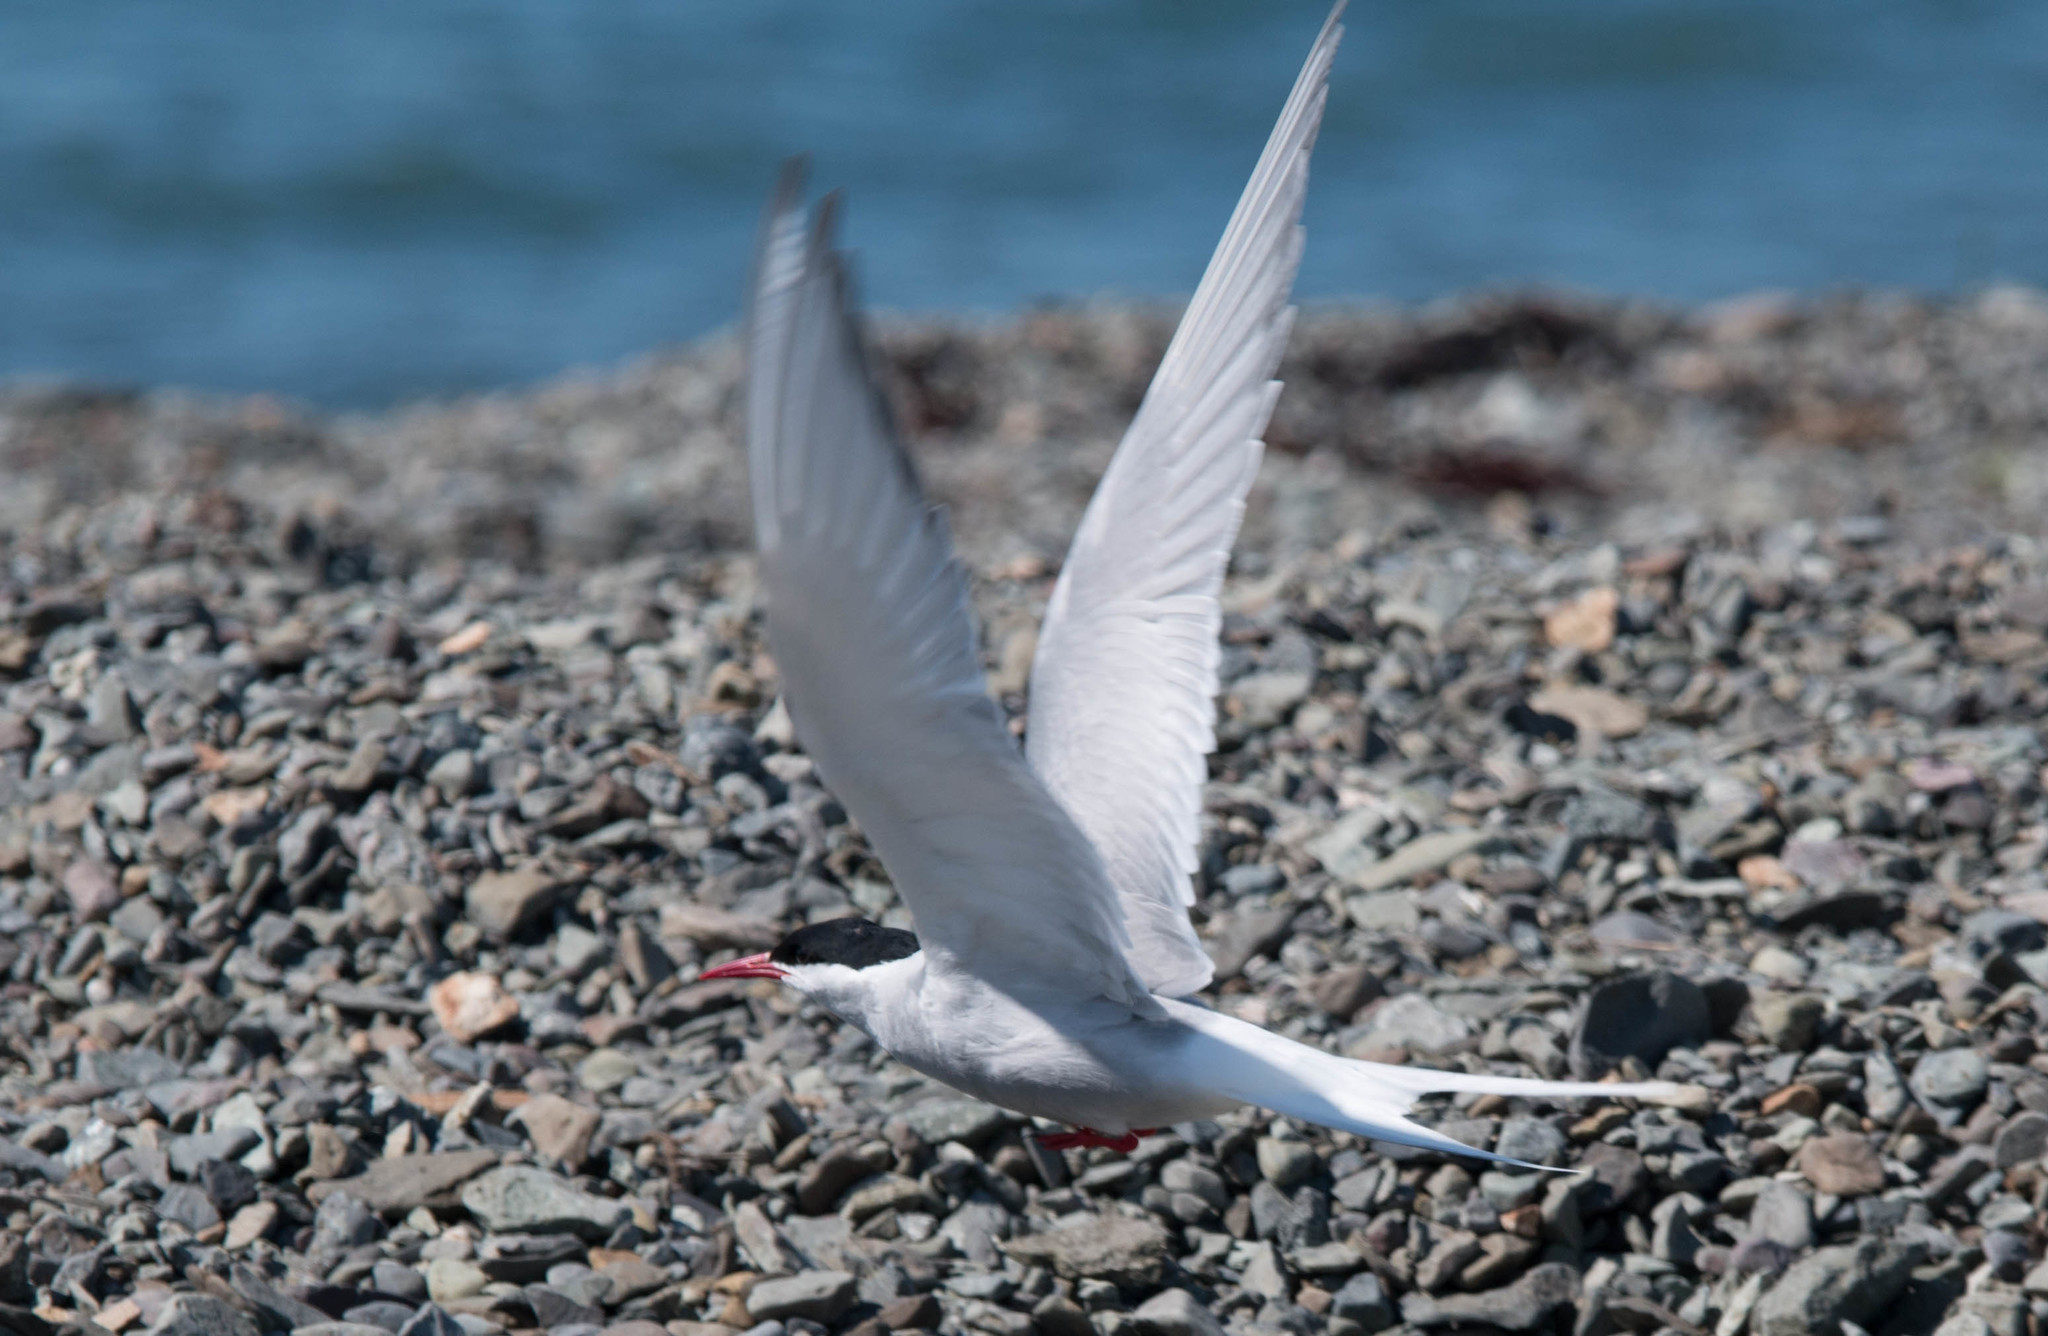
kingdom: Animalia
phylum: Chordata
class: Aves
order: Charadriiformes
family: Laridae
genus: Sterna
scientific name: Sterna paradisaea
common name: Arctic tern
